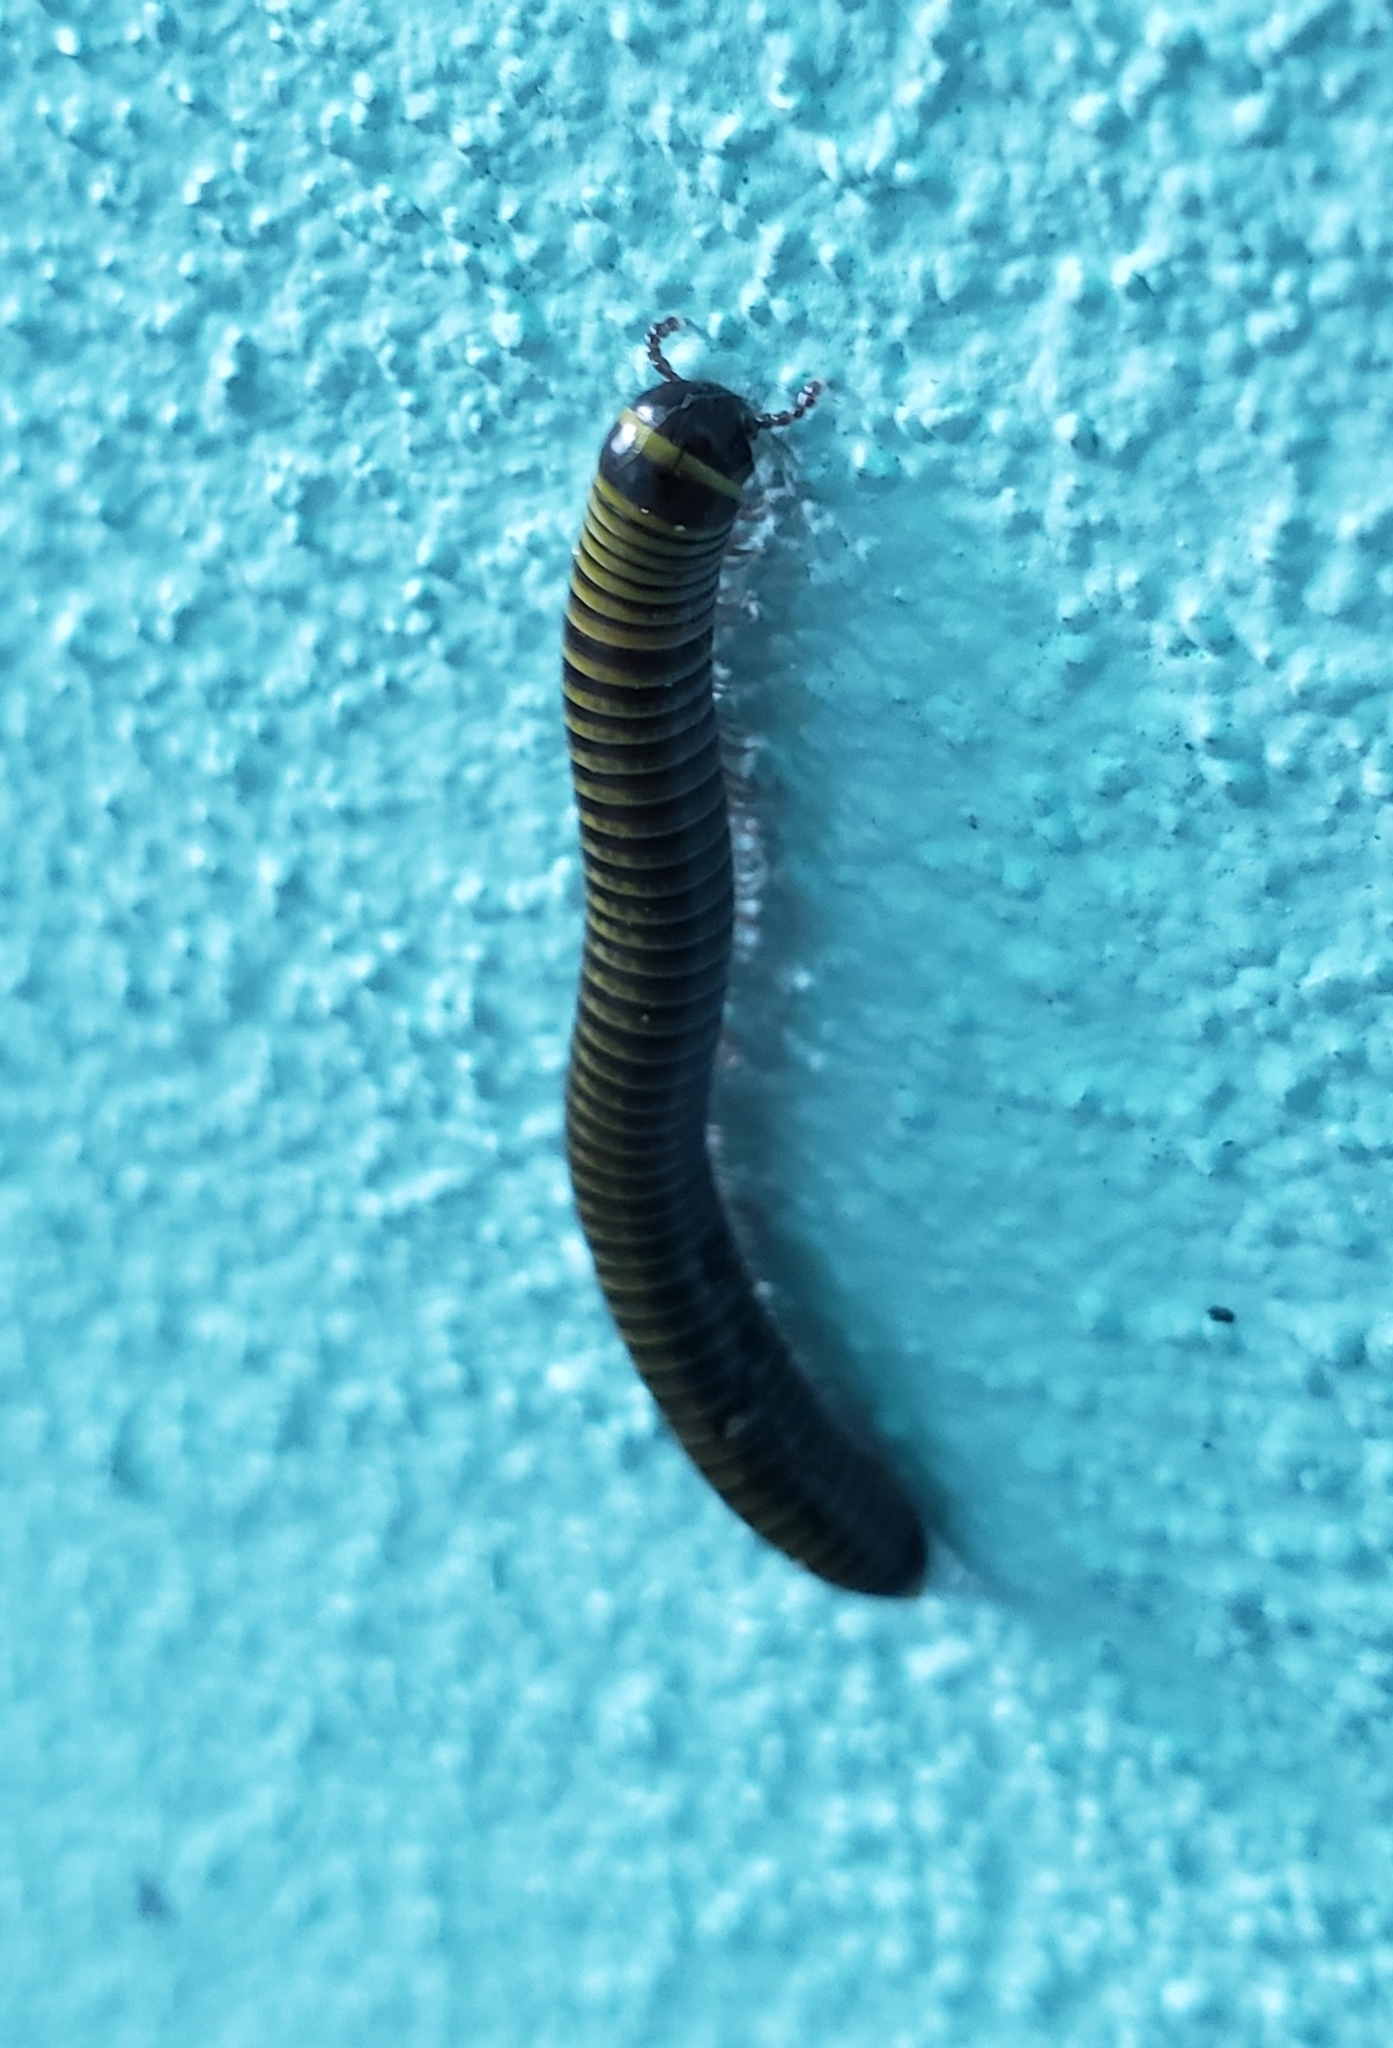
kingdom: Animalia
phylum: Arthropoda
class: Diplopoda
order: Spirobolida
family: Rhinocricidae
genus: Anadenobolus
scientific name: Anadenobolus monilicornis
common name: Caribbean millipede
